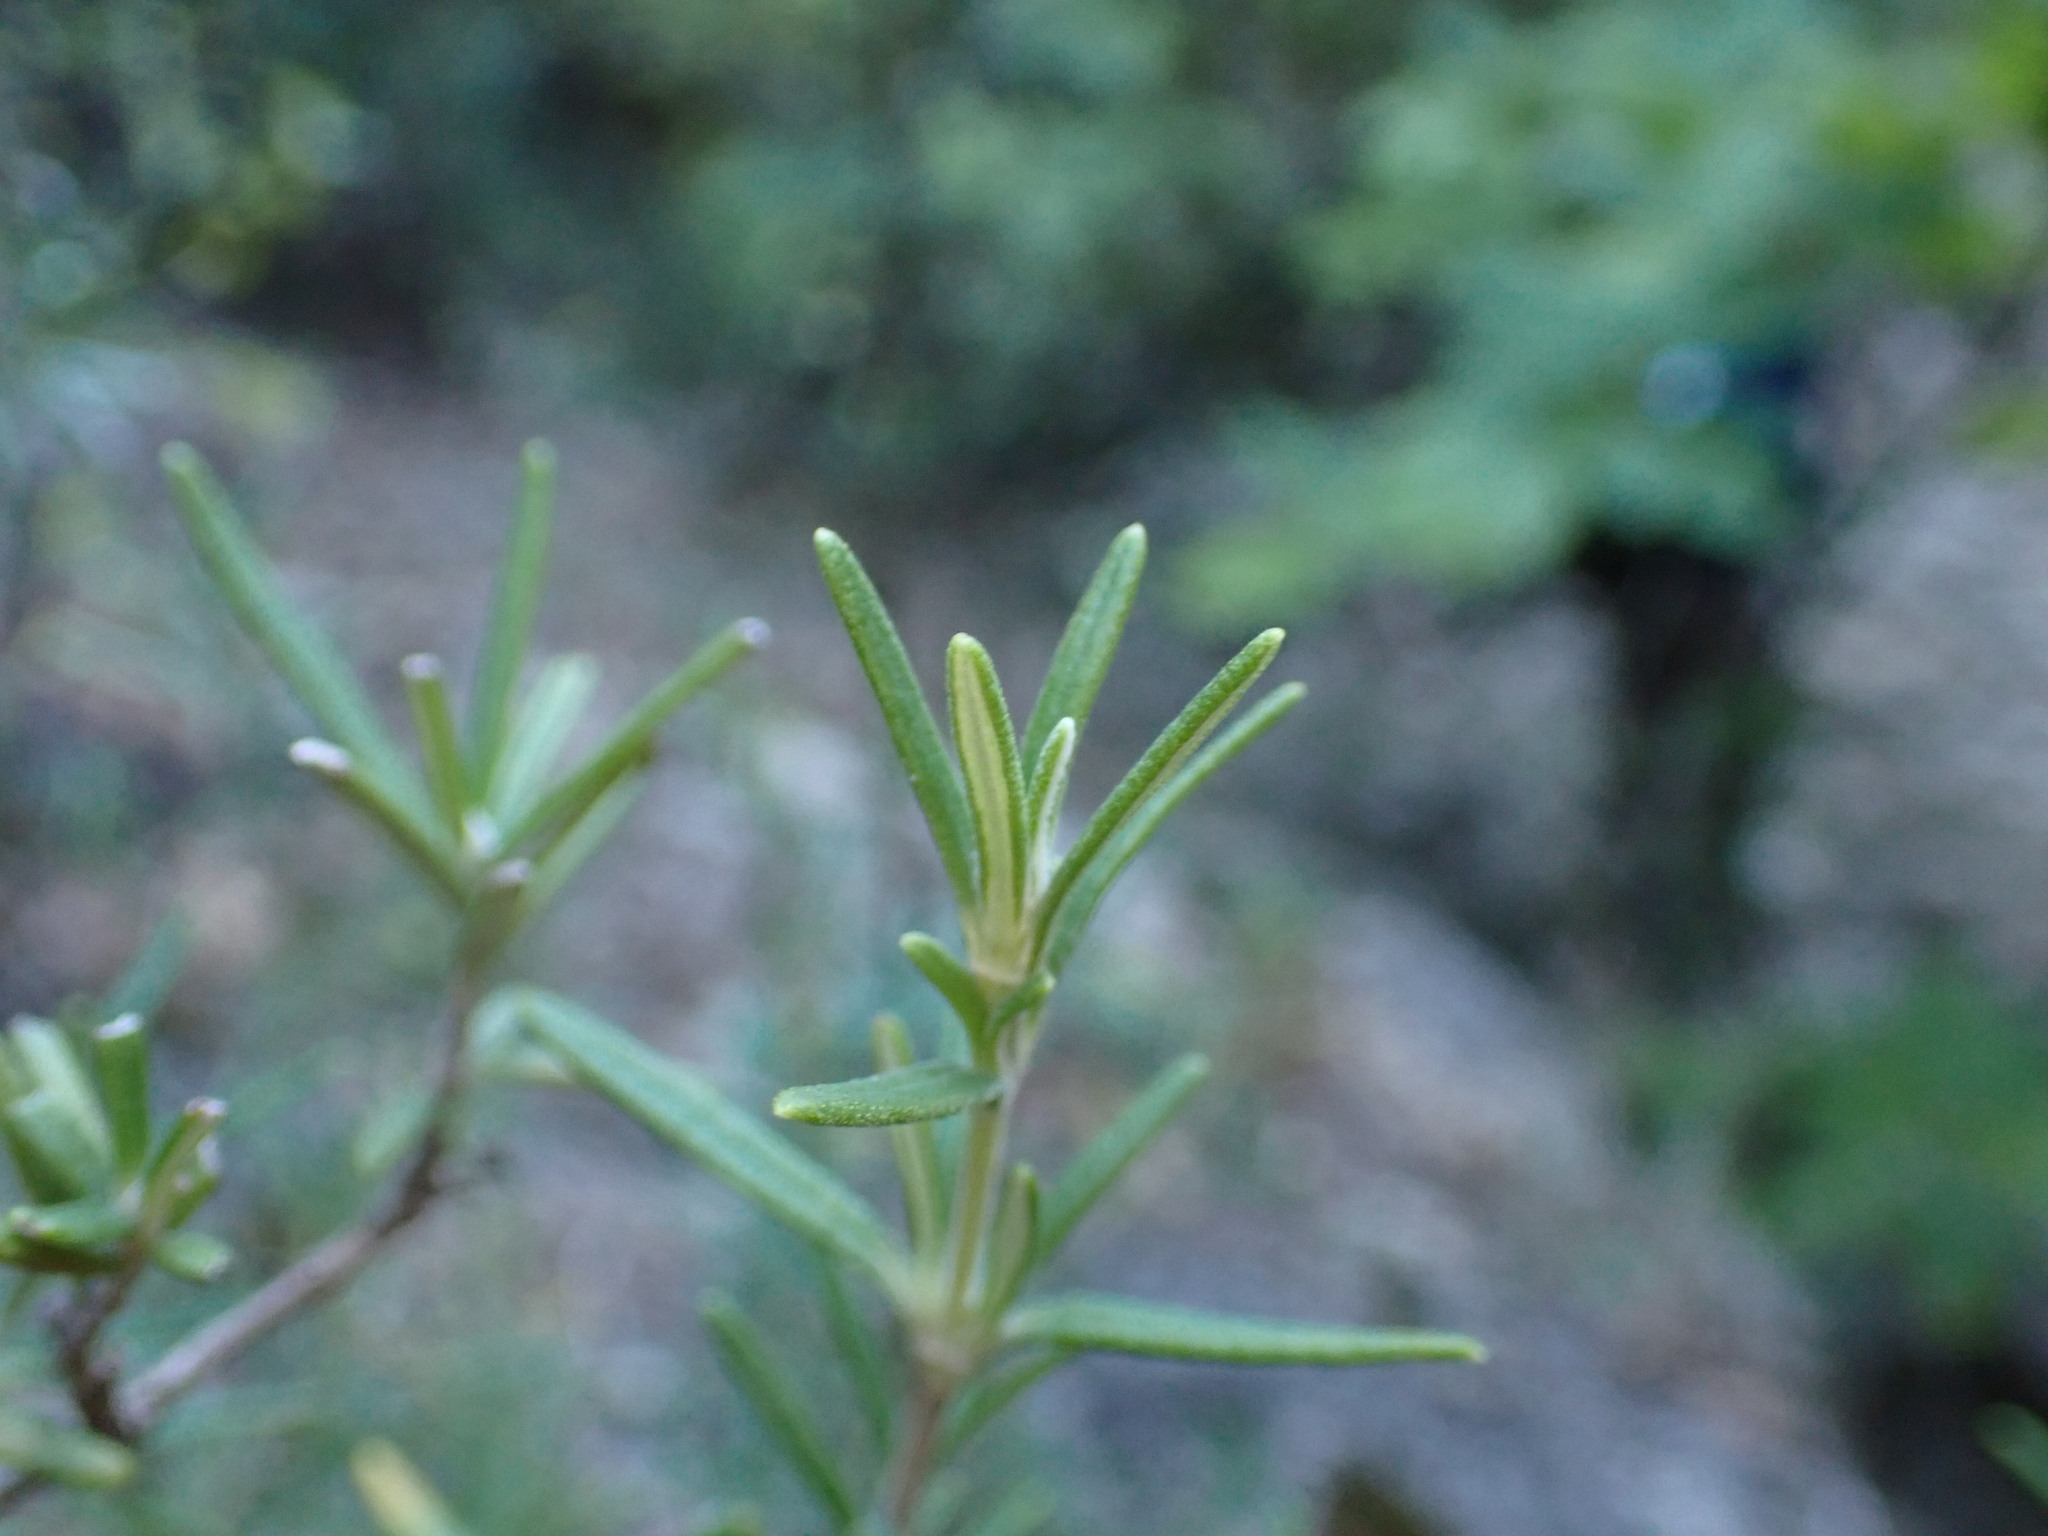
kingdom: Plantae
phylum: Tracheophyta
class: Magnoliopsida
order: Lamiales
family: Lamiaceae
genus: Salvia
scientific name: Salvia rosmarinus
